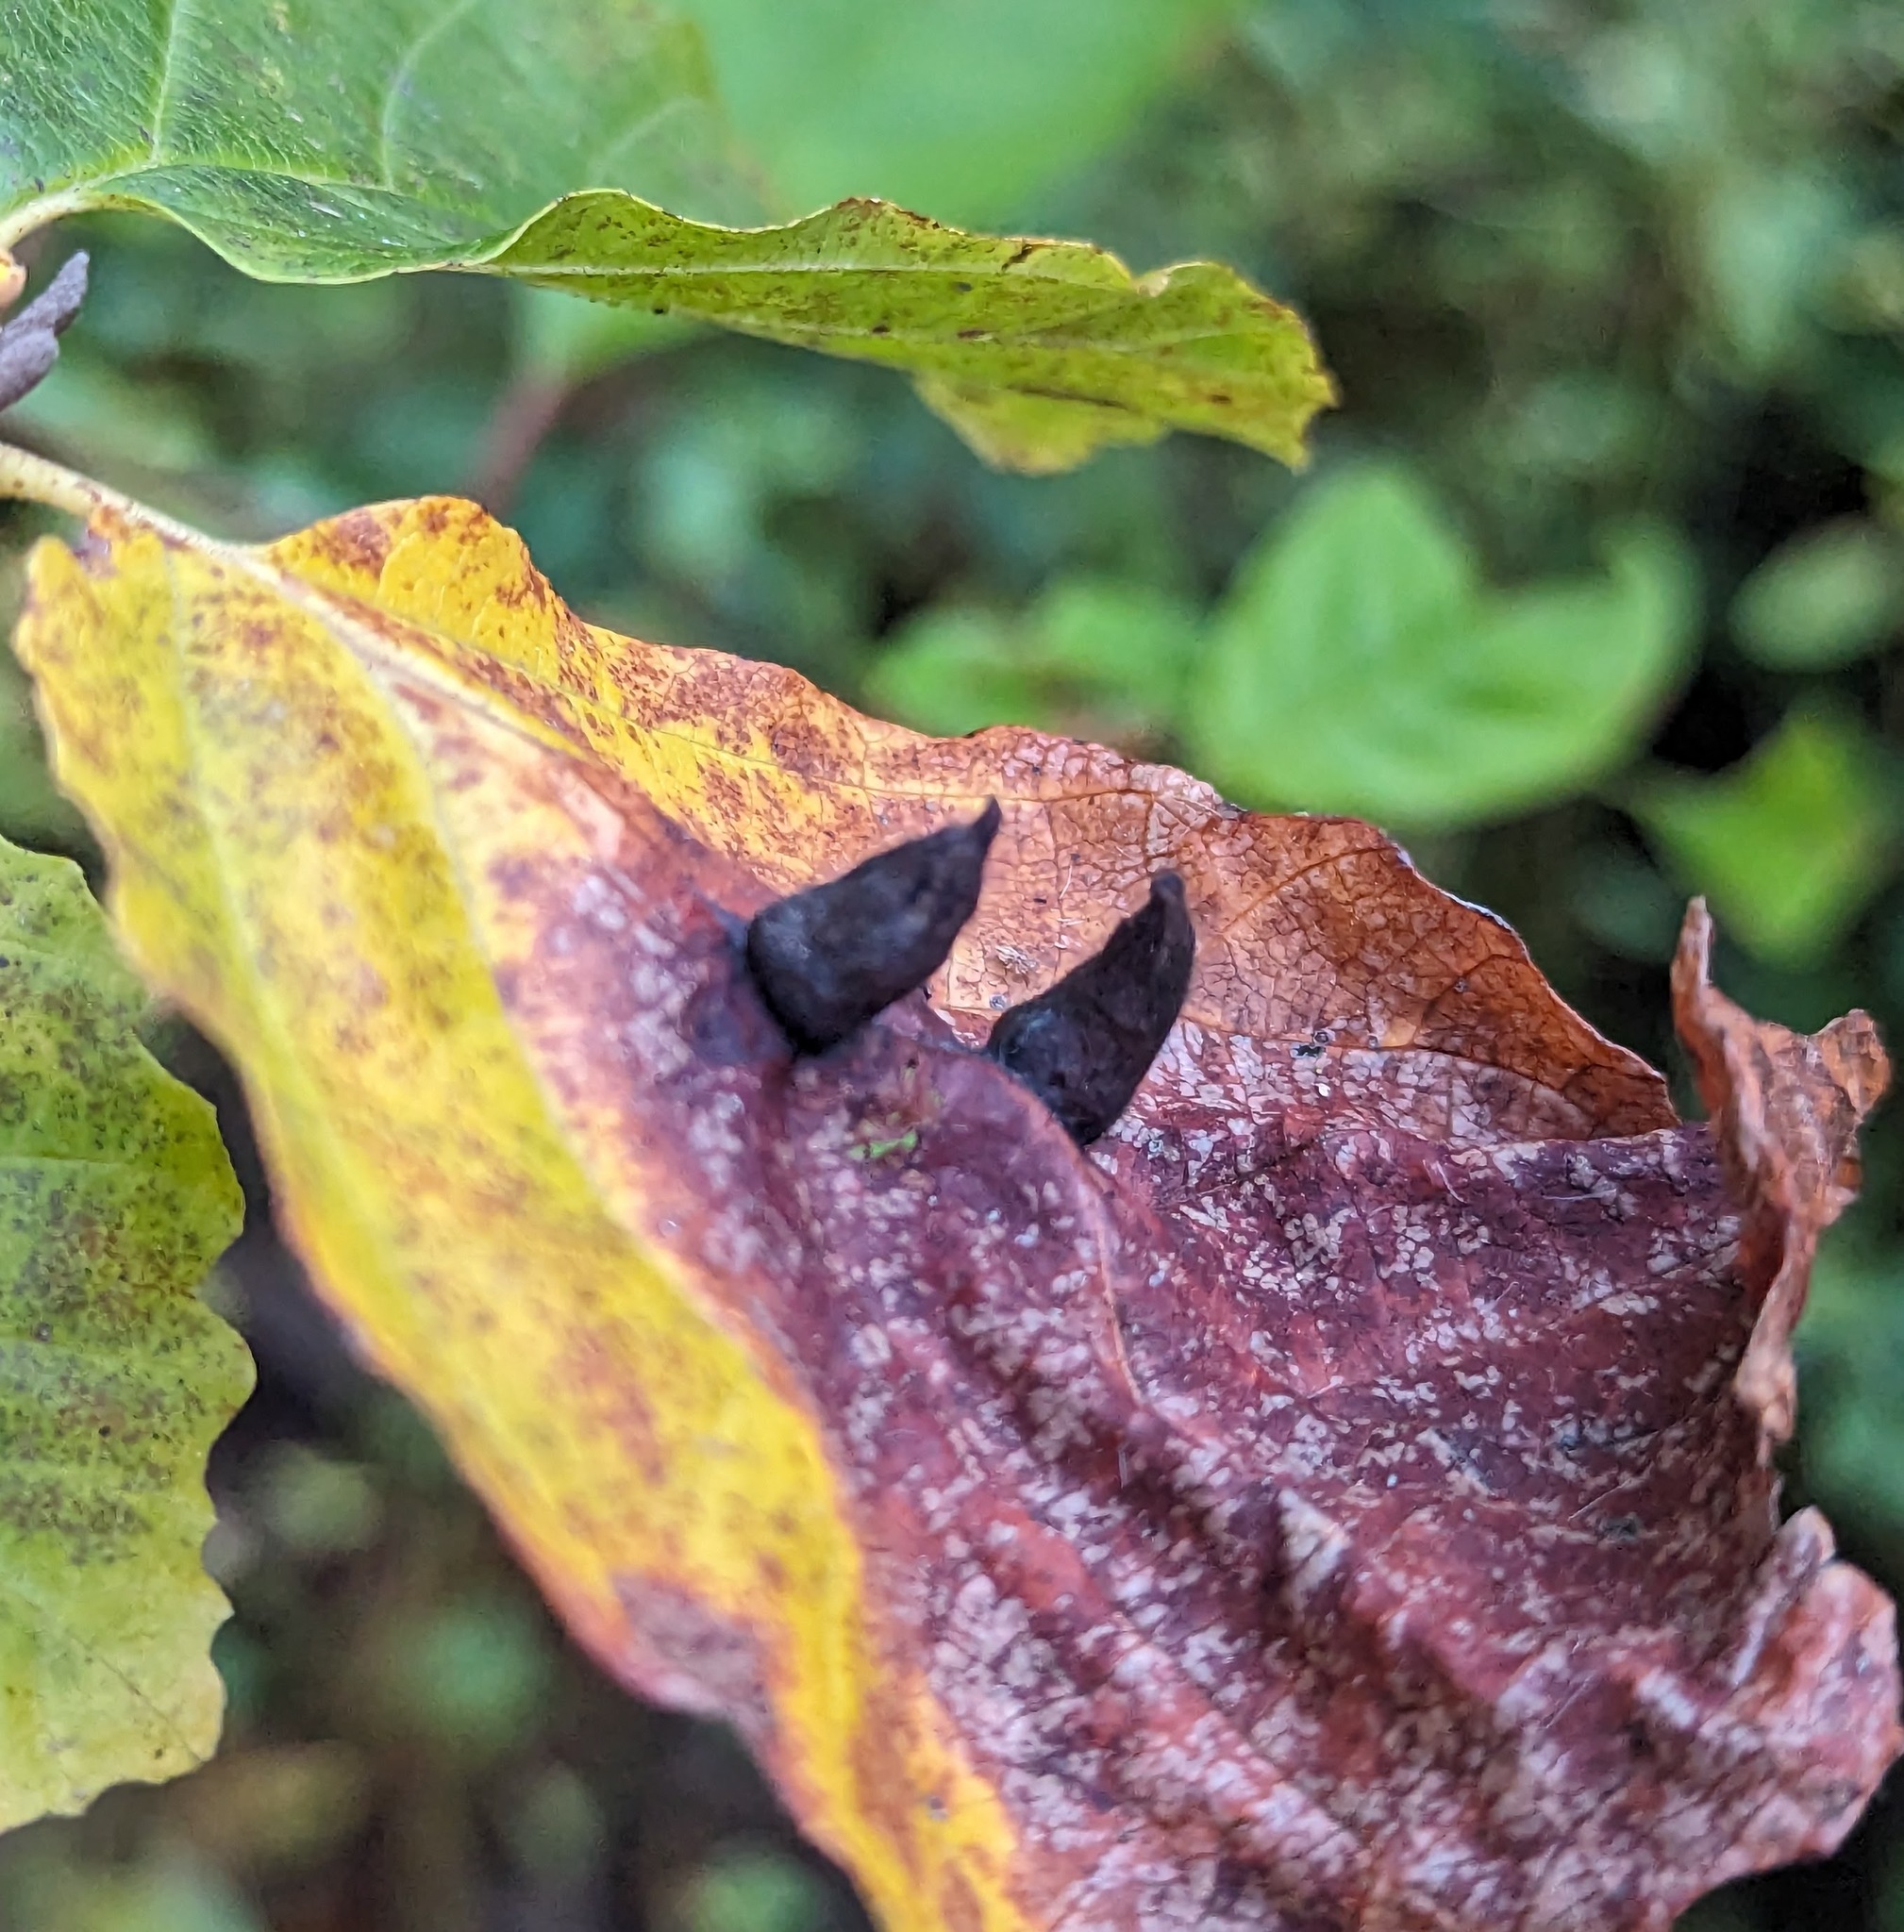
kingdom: Animalia
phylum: Arthropoda
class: Insecta
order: Hemiptera
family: Aphididae
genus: Hormaphis
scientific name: Hormaphis hamamelidis
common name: Witch-hazel cone gall aphid
